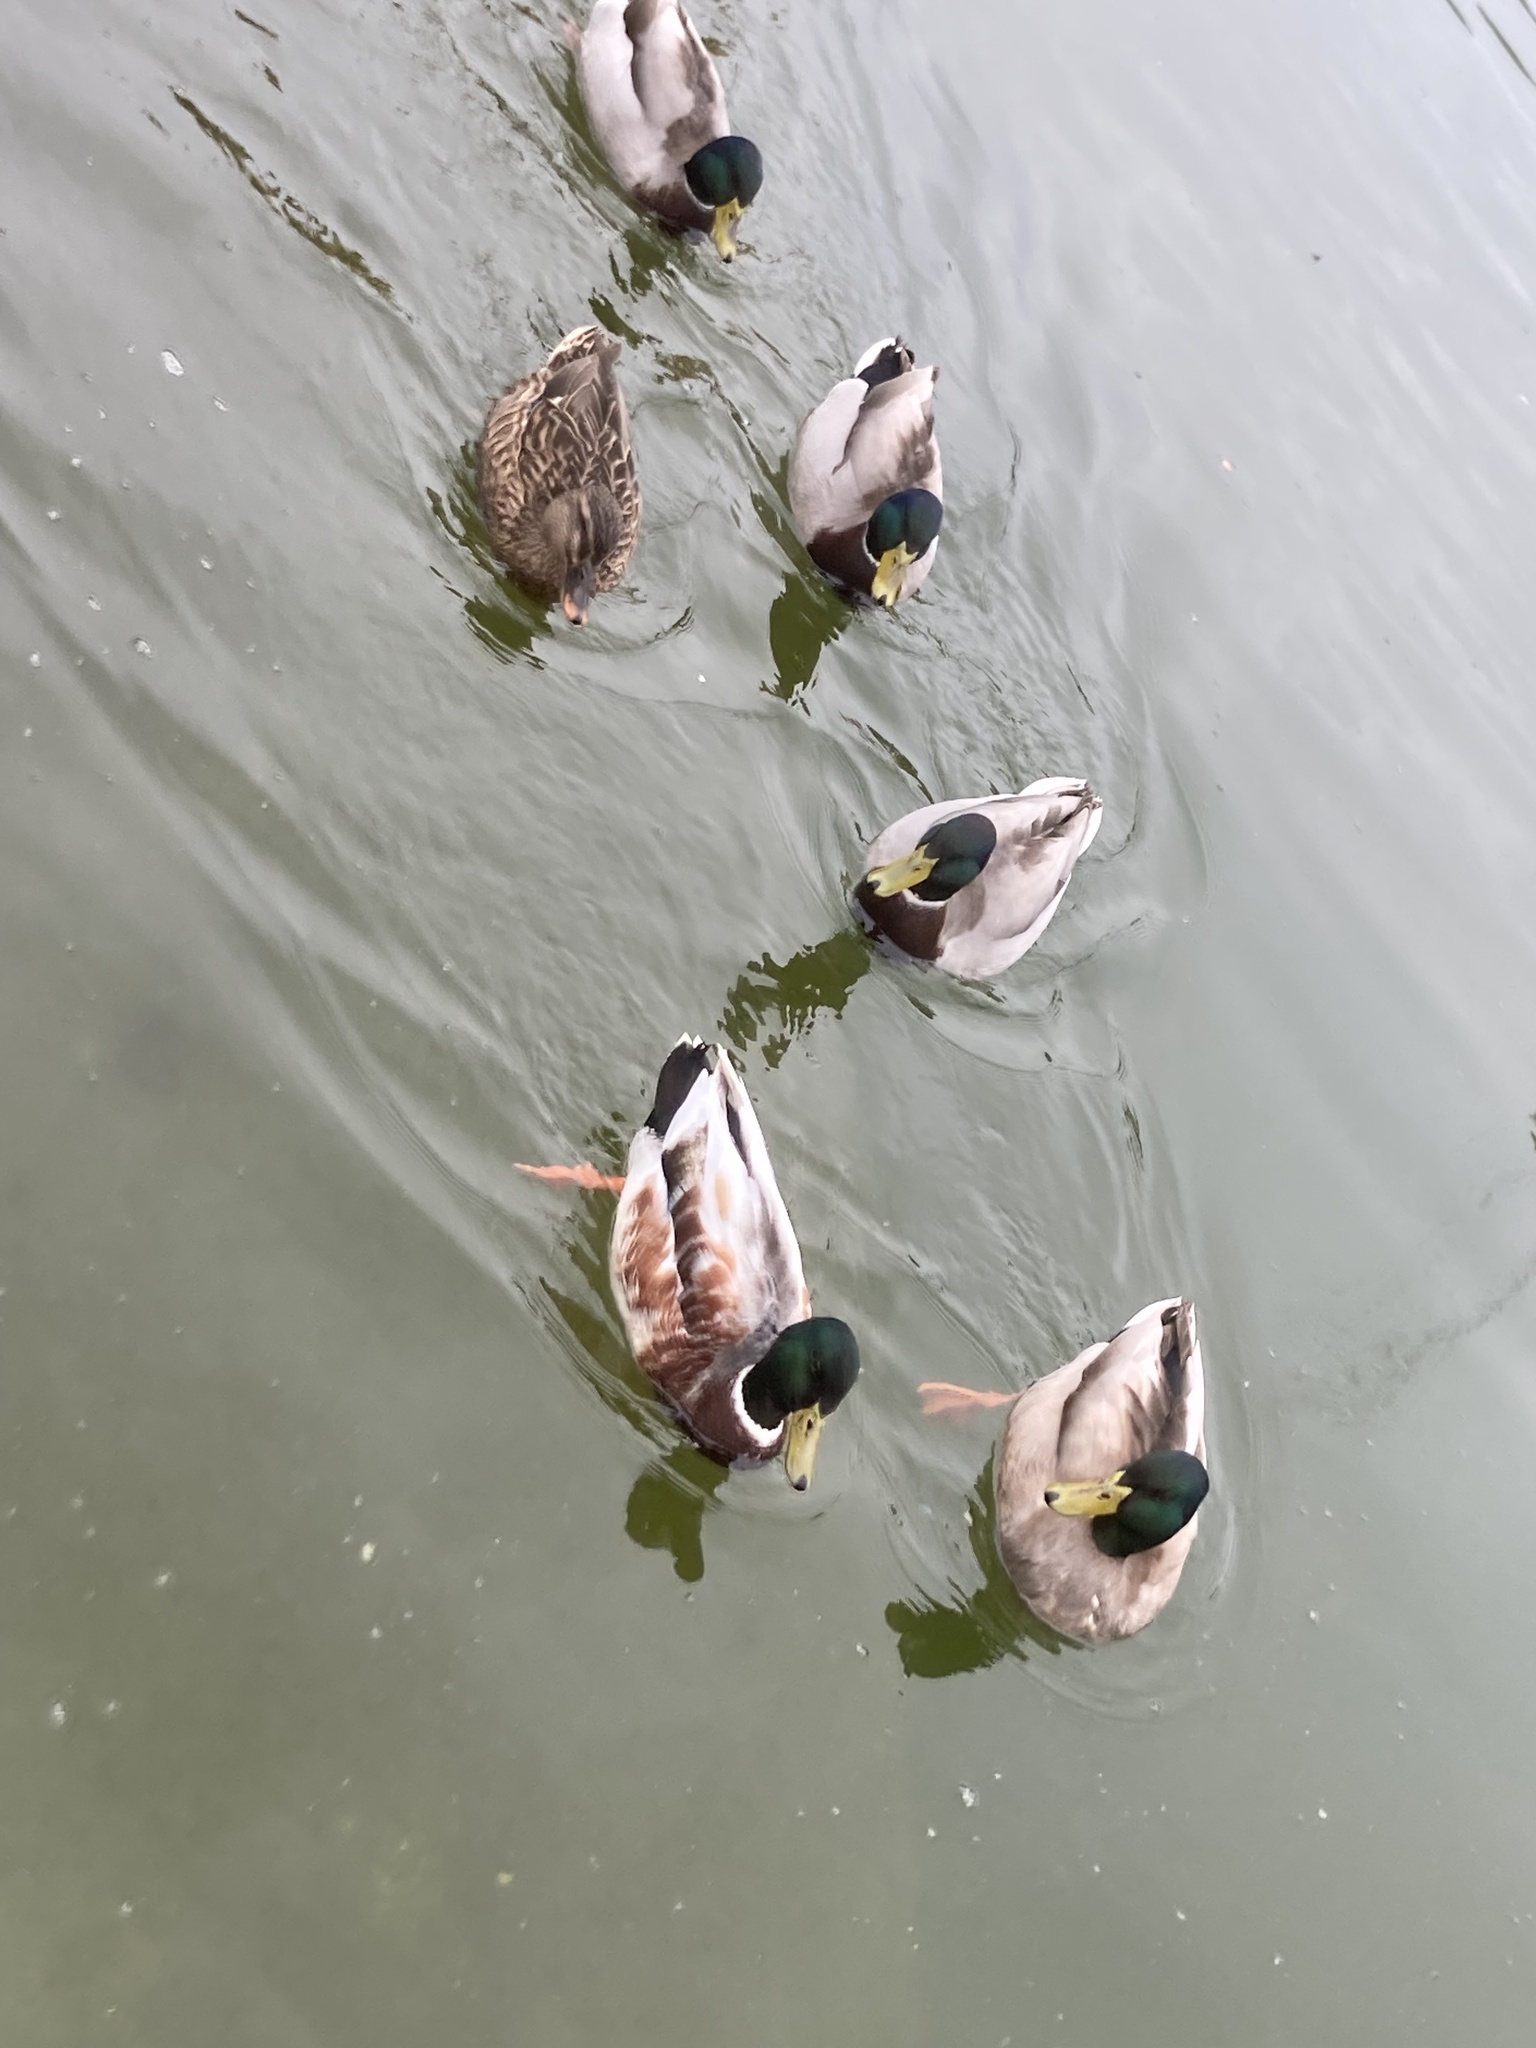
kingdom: Animalia
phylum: Chordata
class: Aves
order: Anseriformes
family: Anatidae
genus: Anas
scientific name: Anas platyrhynchos
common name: Mallard
